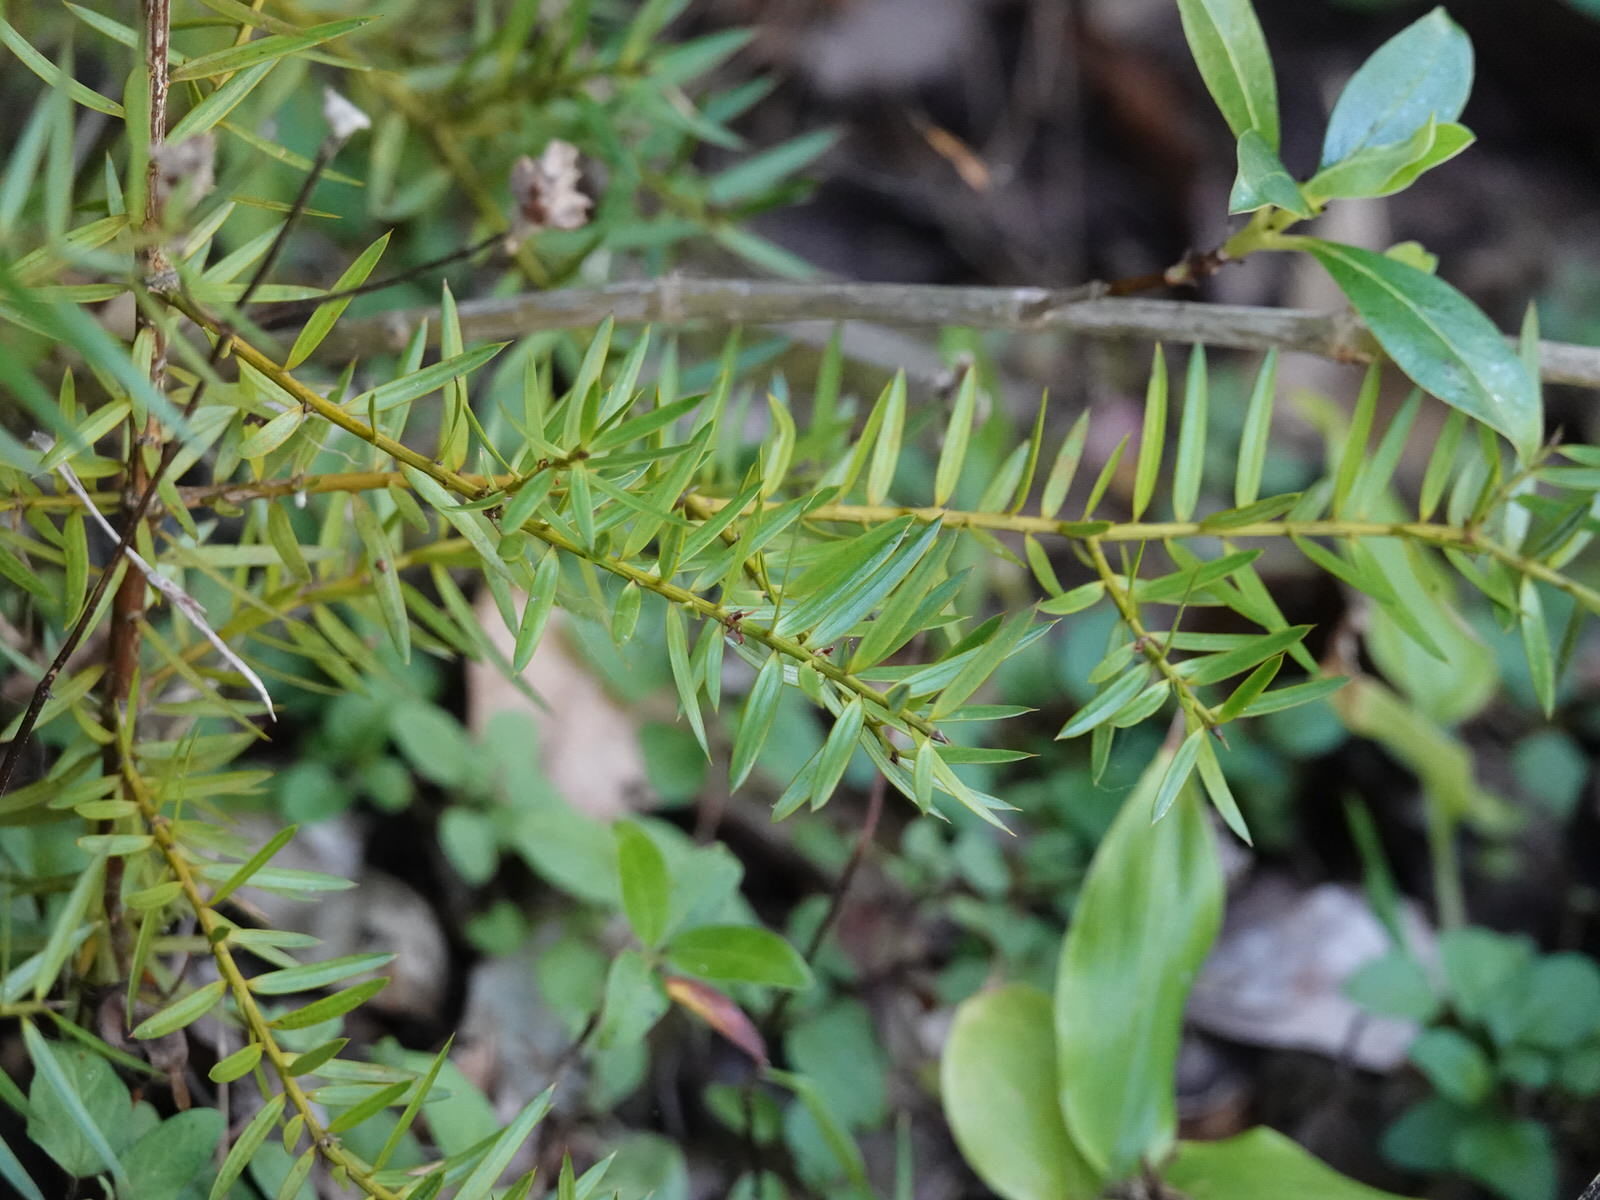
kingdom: Plantae
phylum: Tracheophyta
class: Pinopsida
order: Pinales
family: Podocarpaceae
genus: Podocarpus
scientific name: Podocarpus totara
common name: Totara
